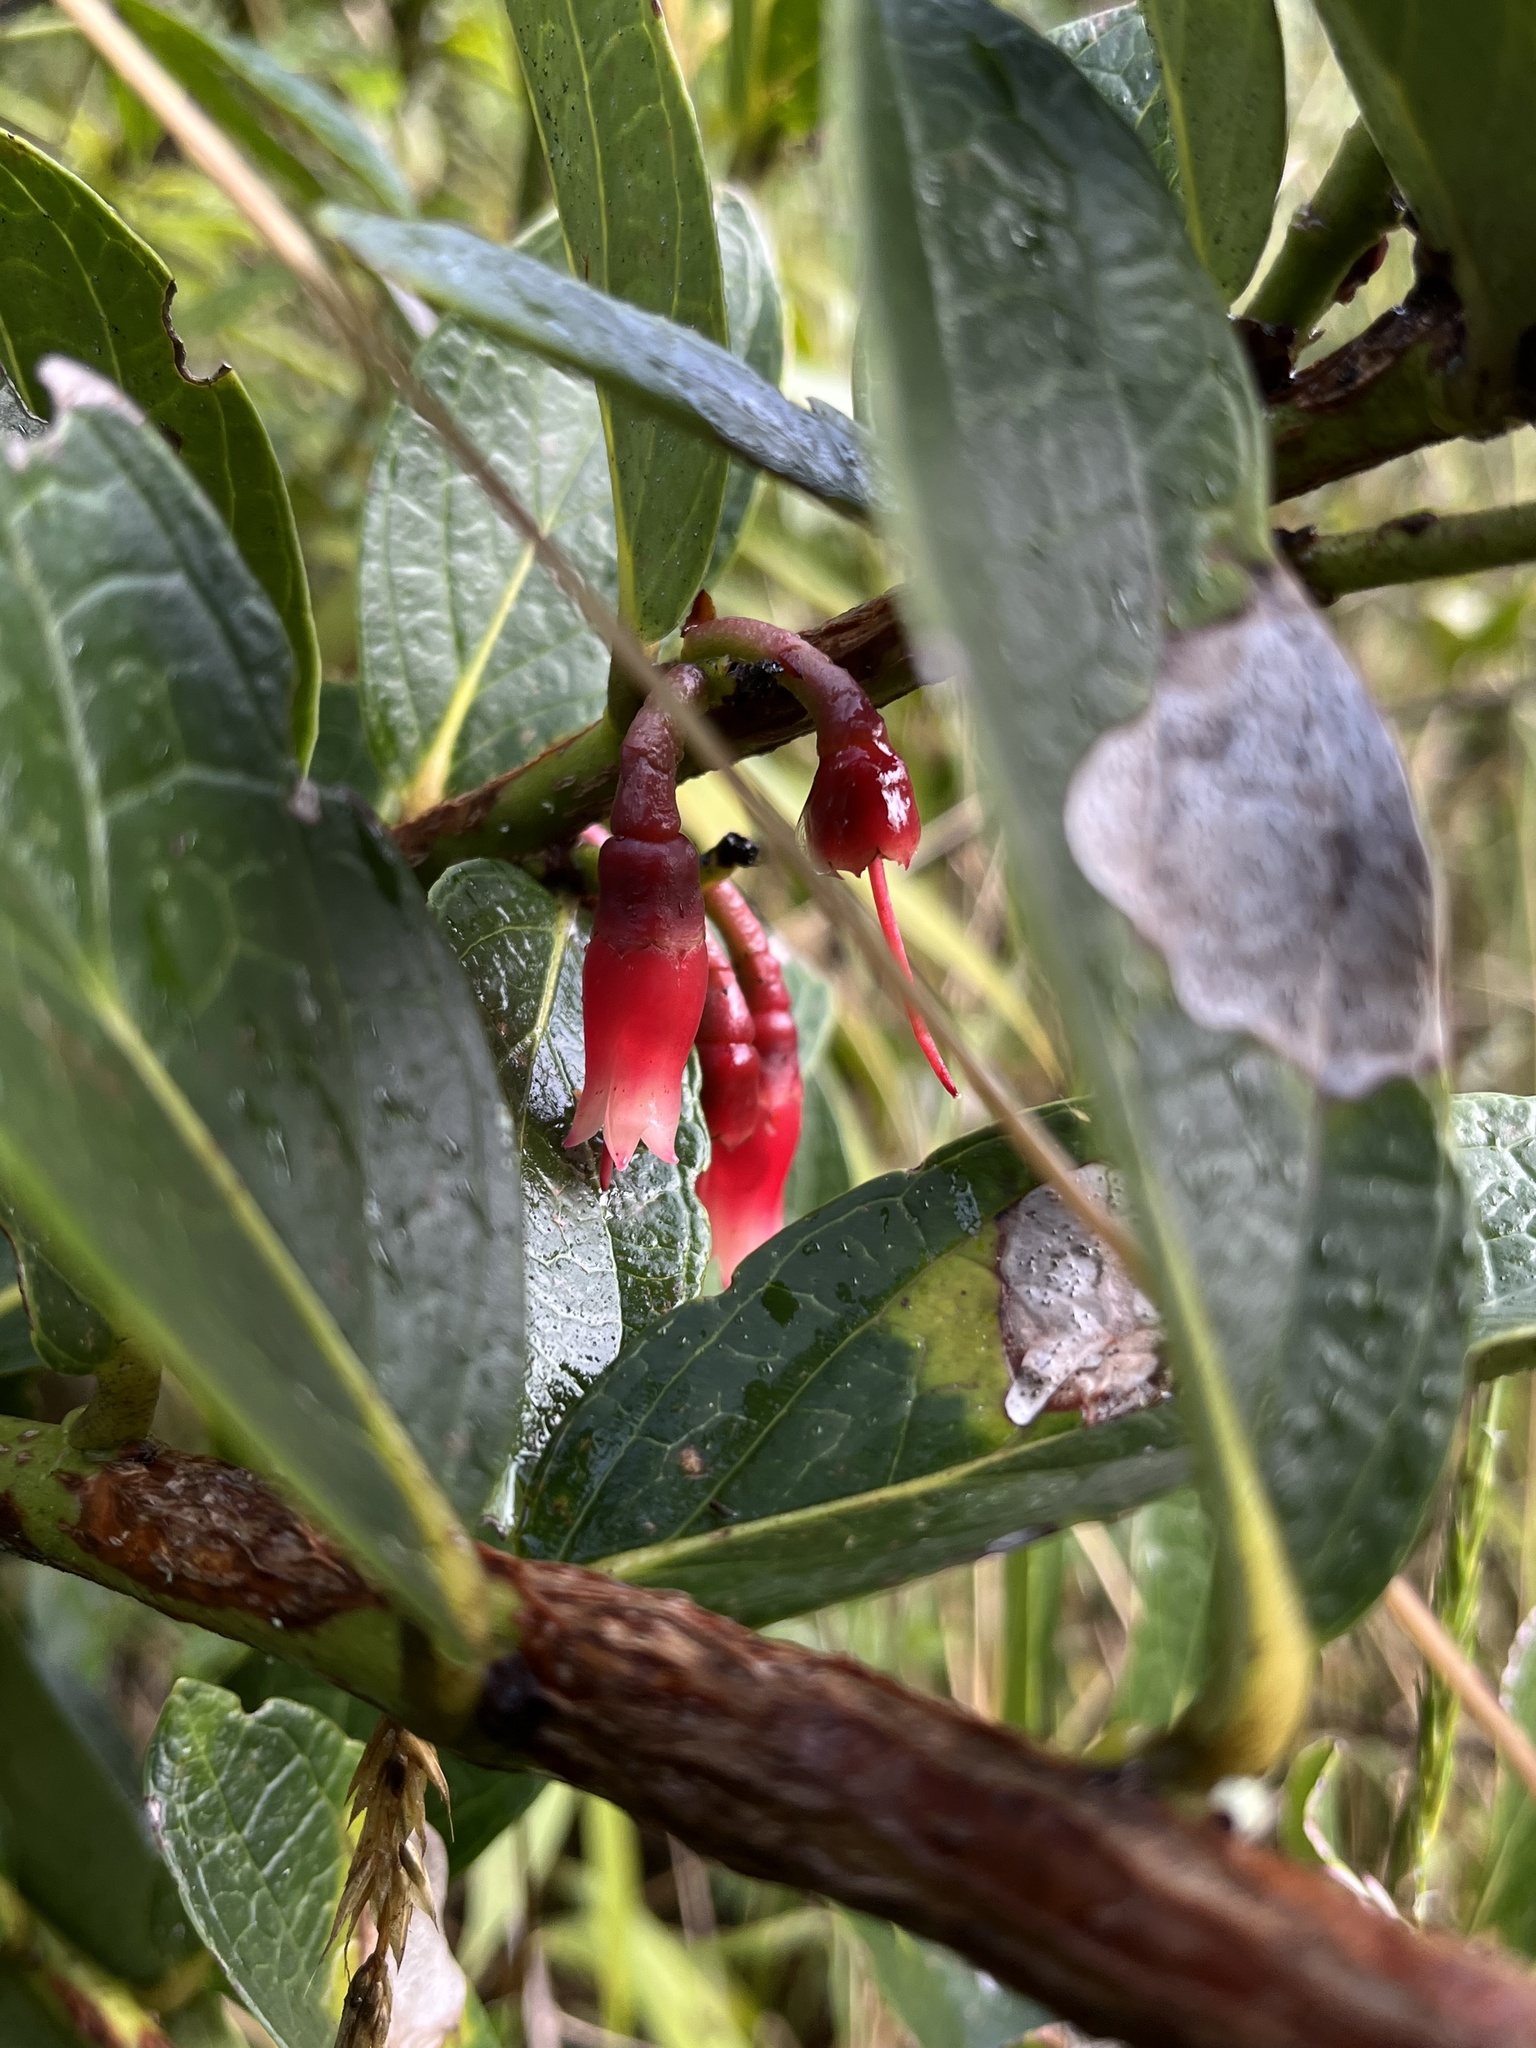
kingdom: Plantae
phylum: Tracheophyta
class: Magnoliopsida
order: Ericales
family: Ericaceae
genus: Macleania
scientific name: Macleania rupestris
